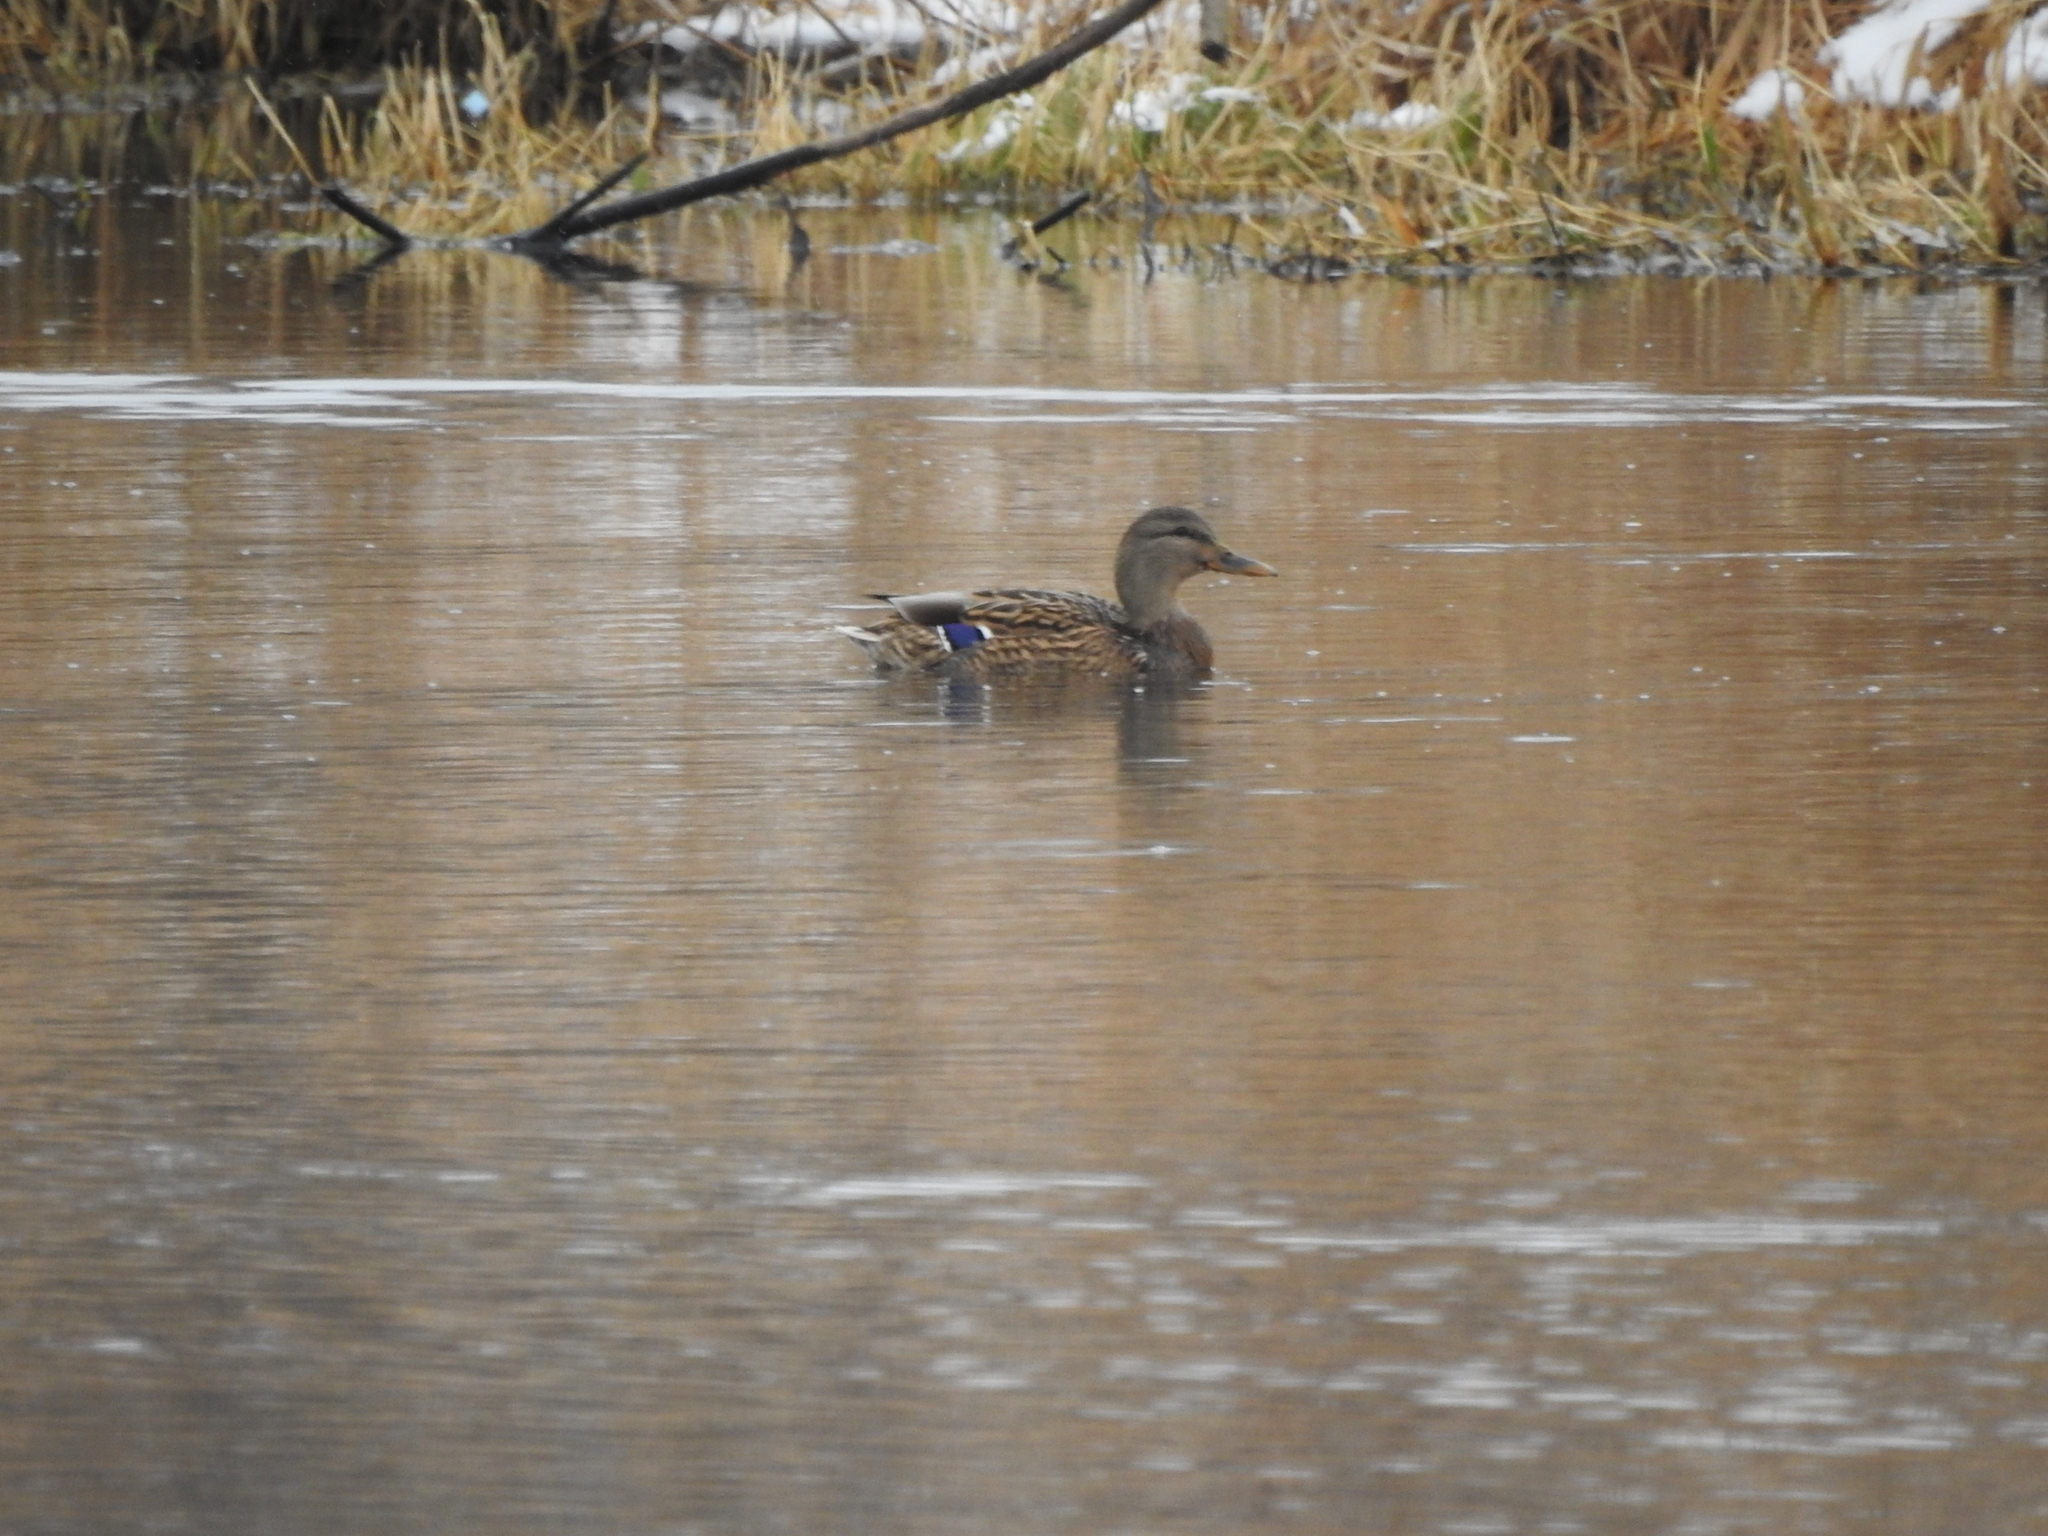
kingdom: Animalia
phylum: Chordata
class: Aves
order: Anseriformes
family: Anatidae
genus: Anas
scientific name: Anas platyrhynchos
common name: Mallard
